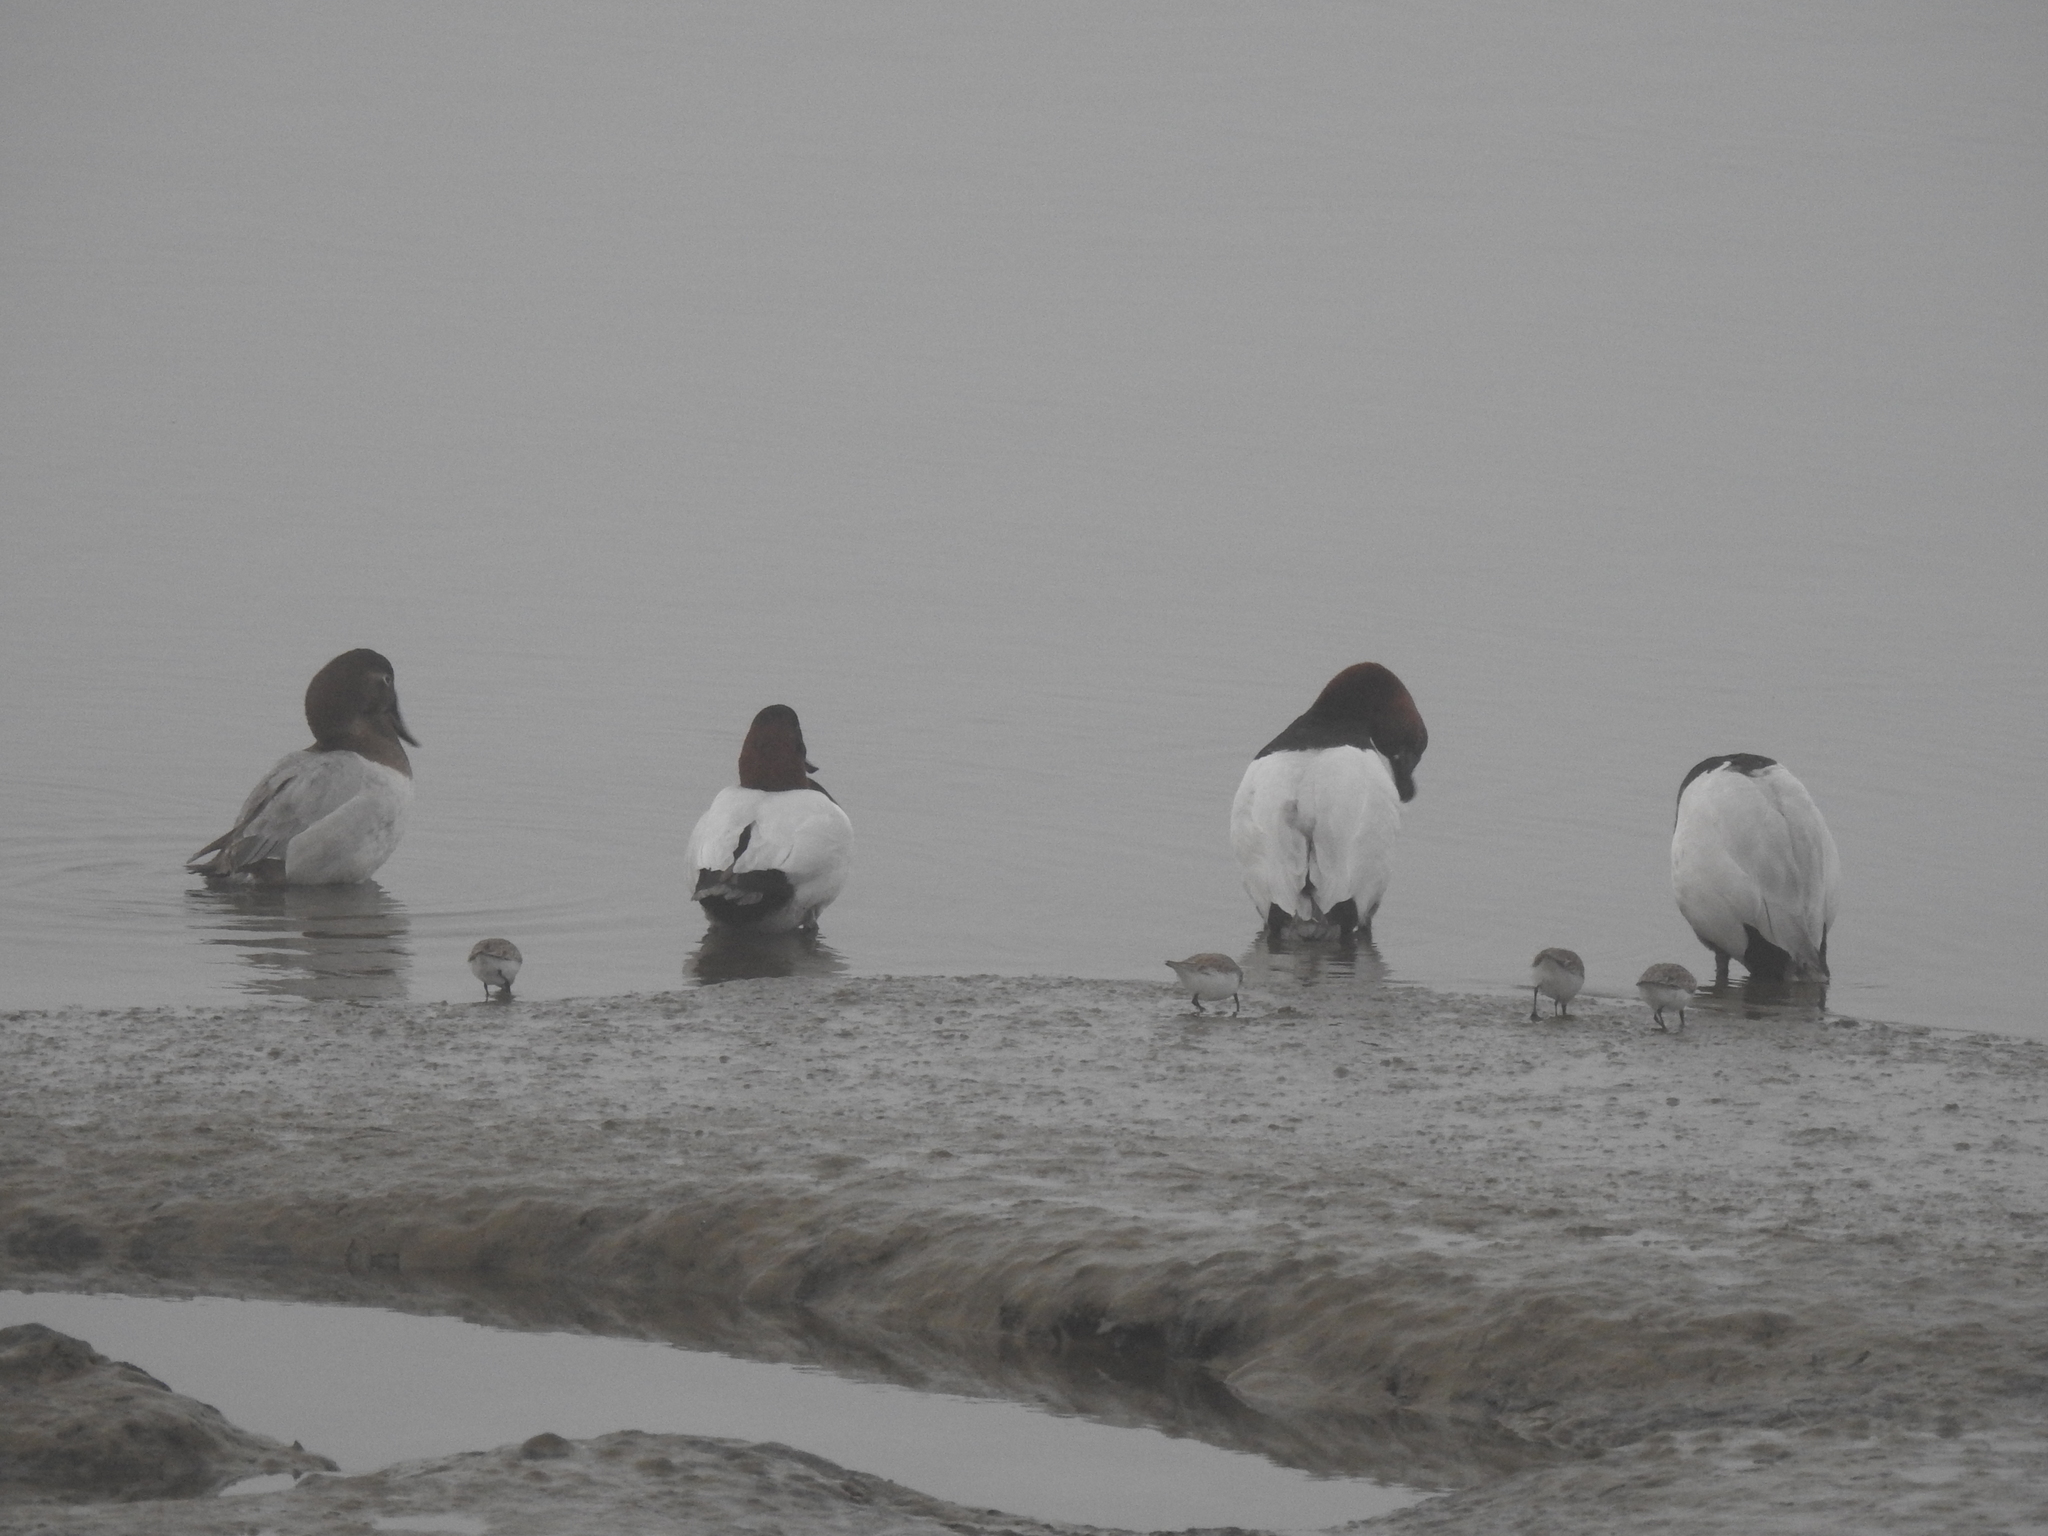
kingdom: Animalia
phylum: Chordata
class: Aves
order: Anseriformes
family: Anatidae
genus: Aythya
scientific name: Aythya valisineria
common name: Canvasback
